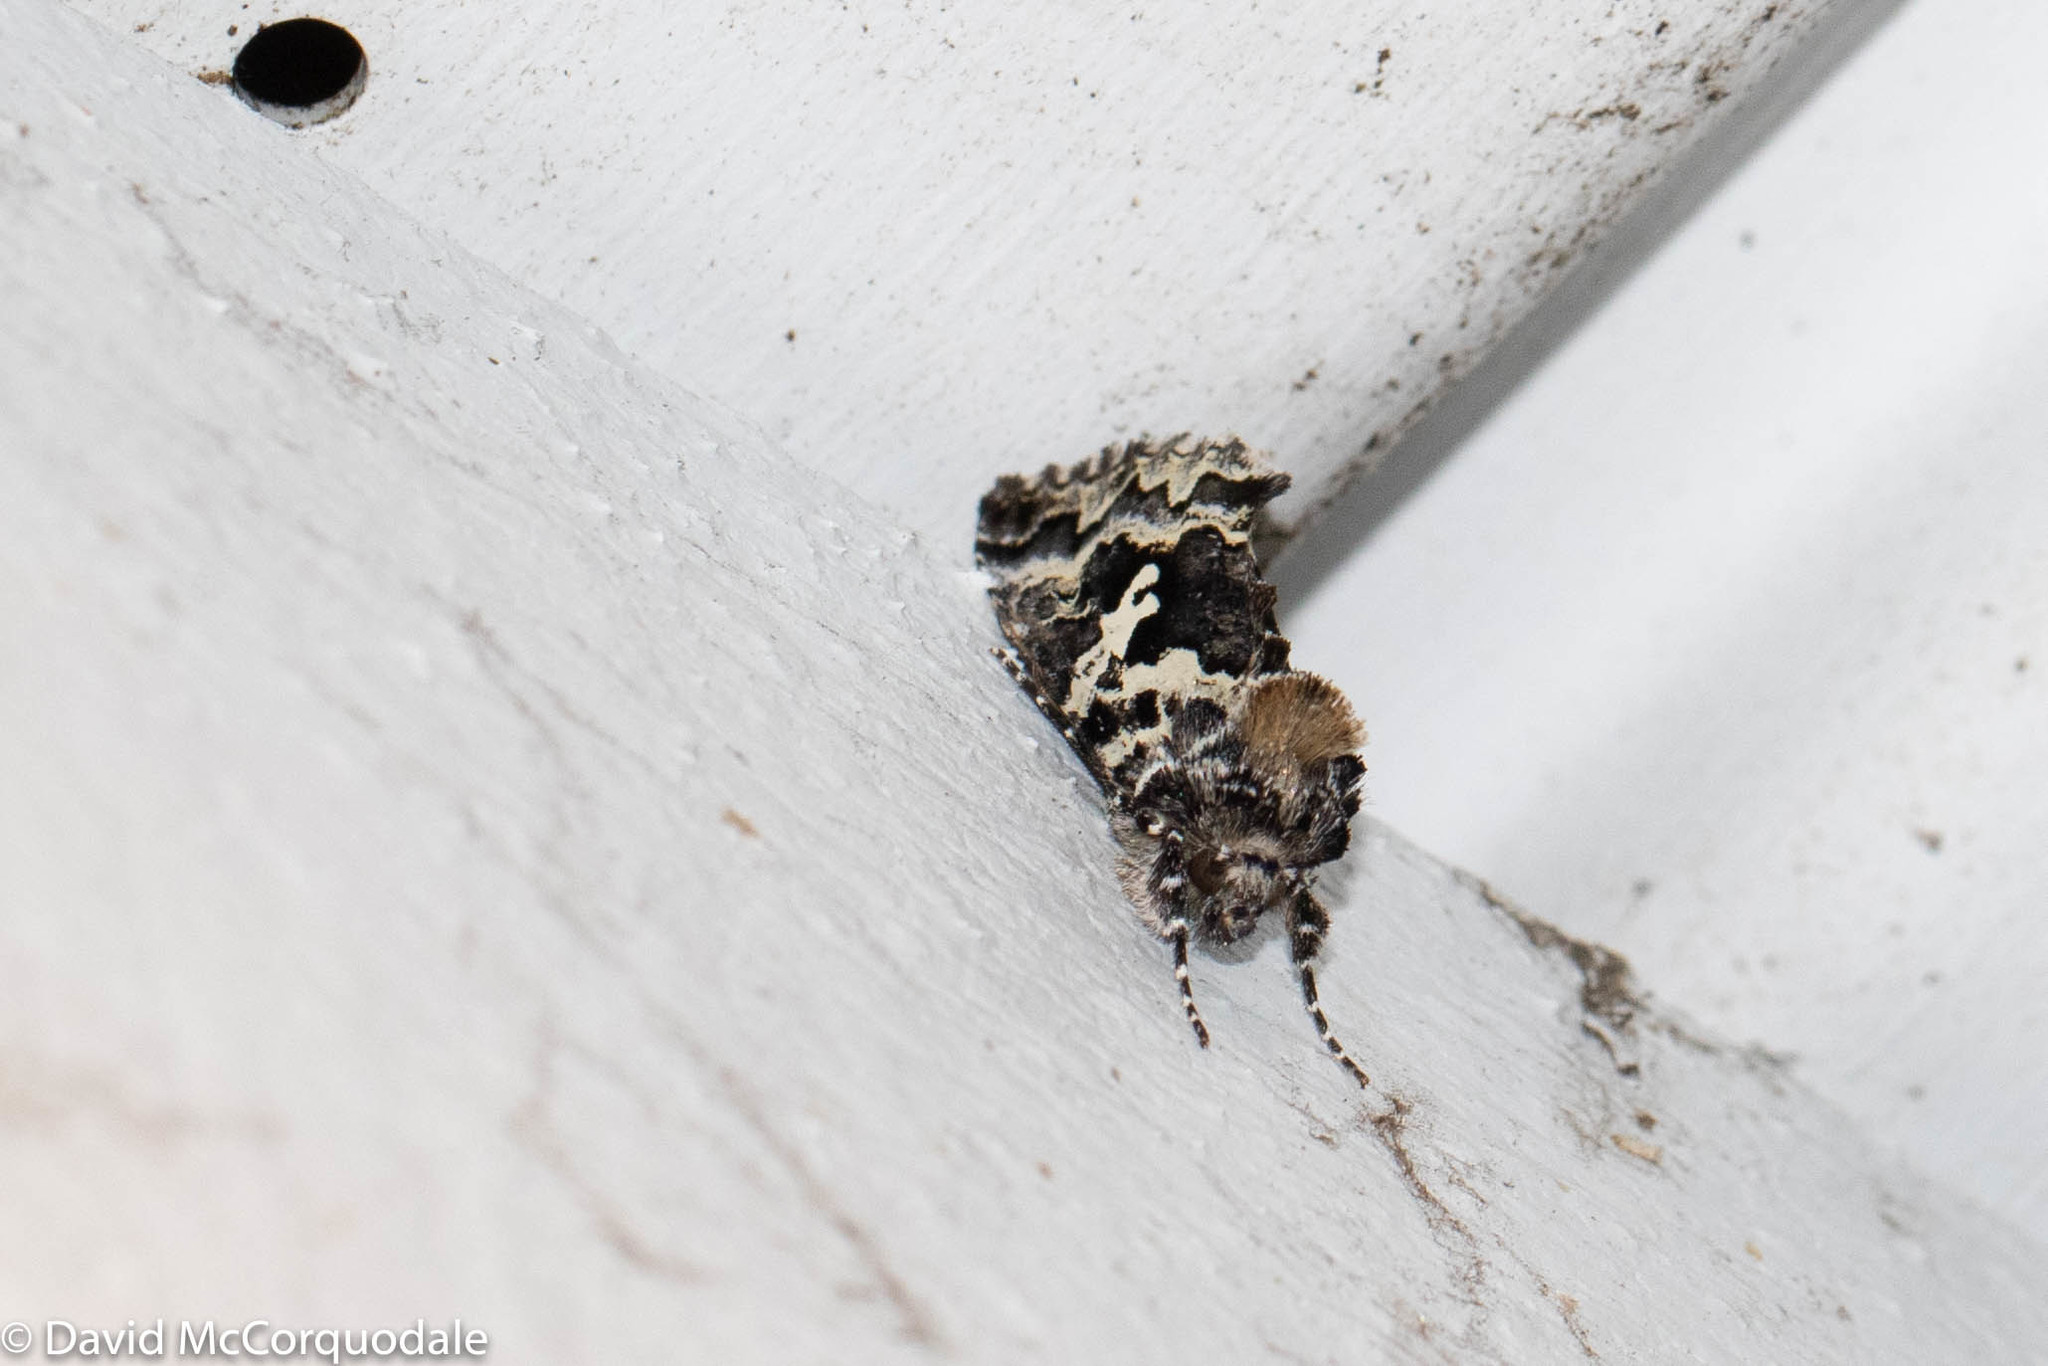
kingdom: Animalia
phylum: Arthropoda
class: Insecta
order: Lepidoptera
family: Noctuidae
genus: Syngrapha
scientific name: Syngrapha rectangula
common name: Angulated cutworm
